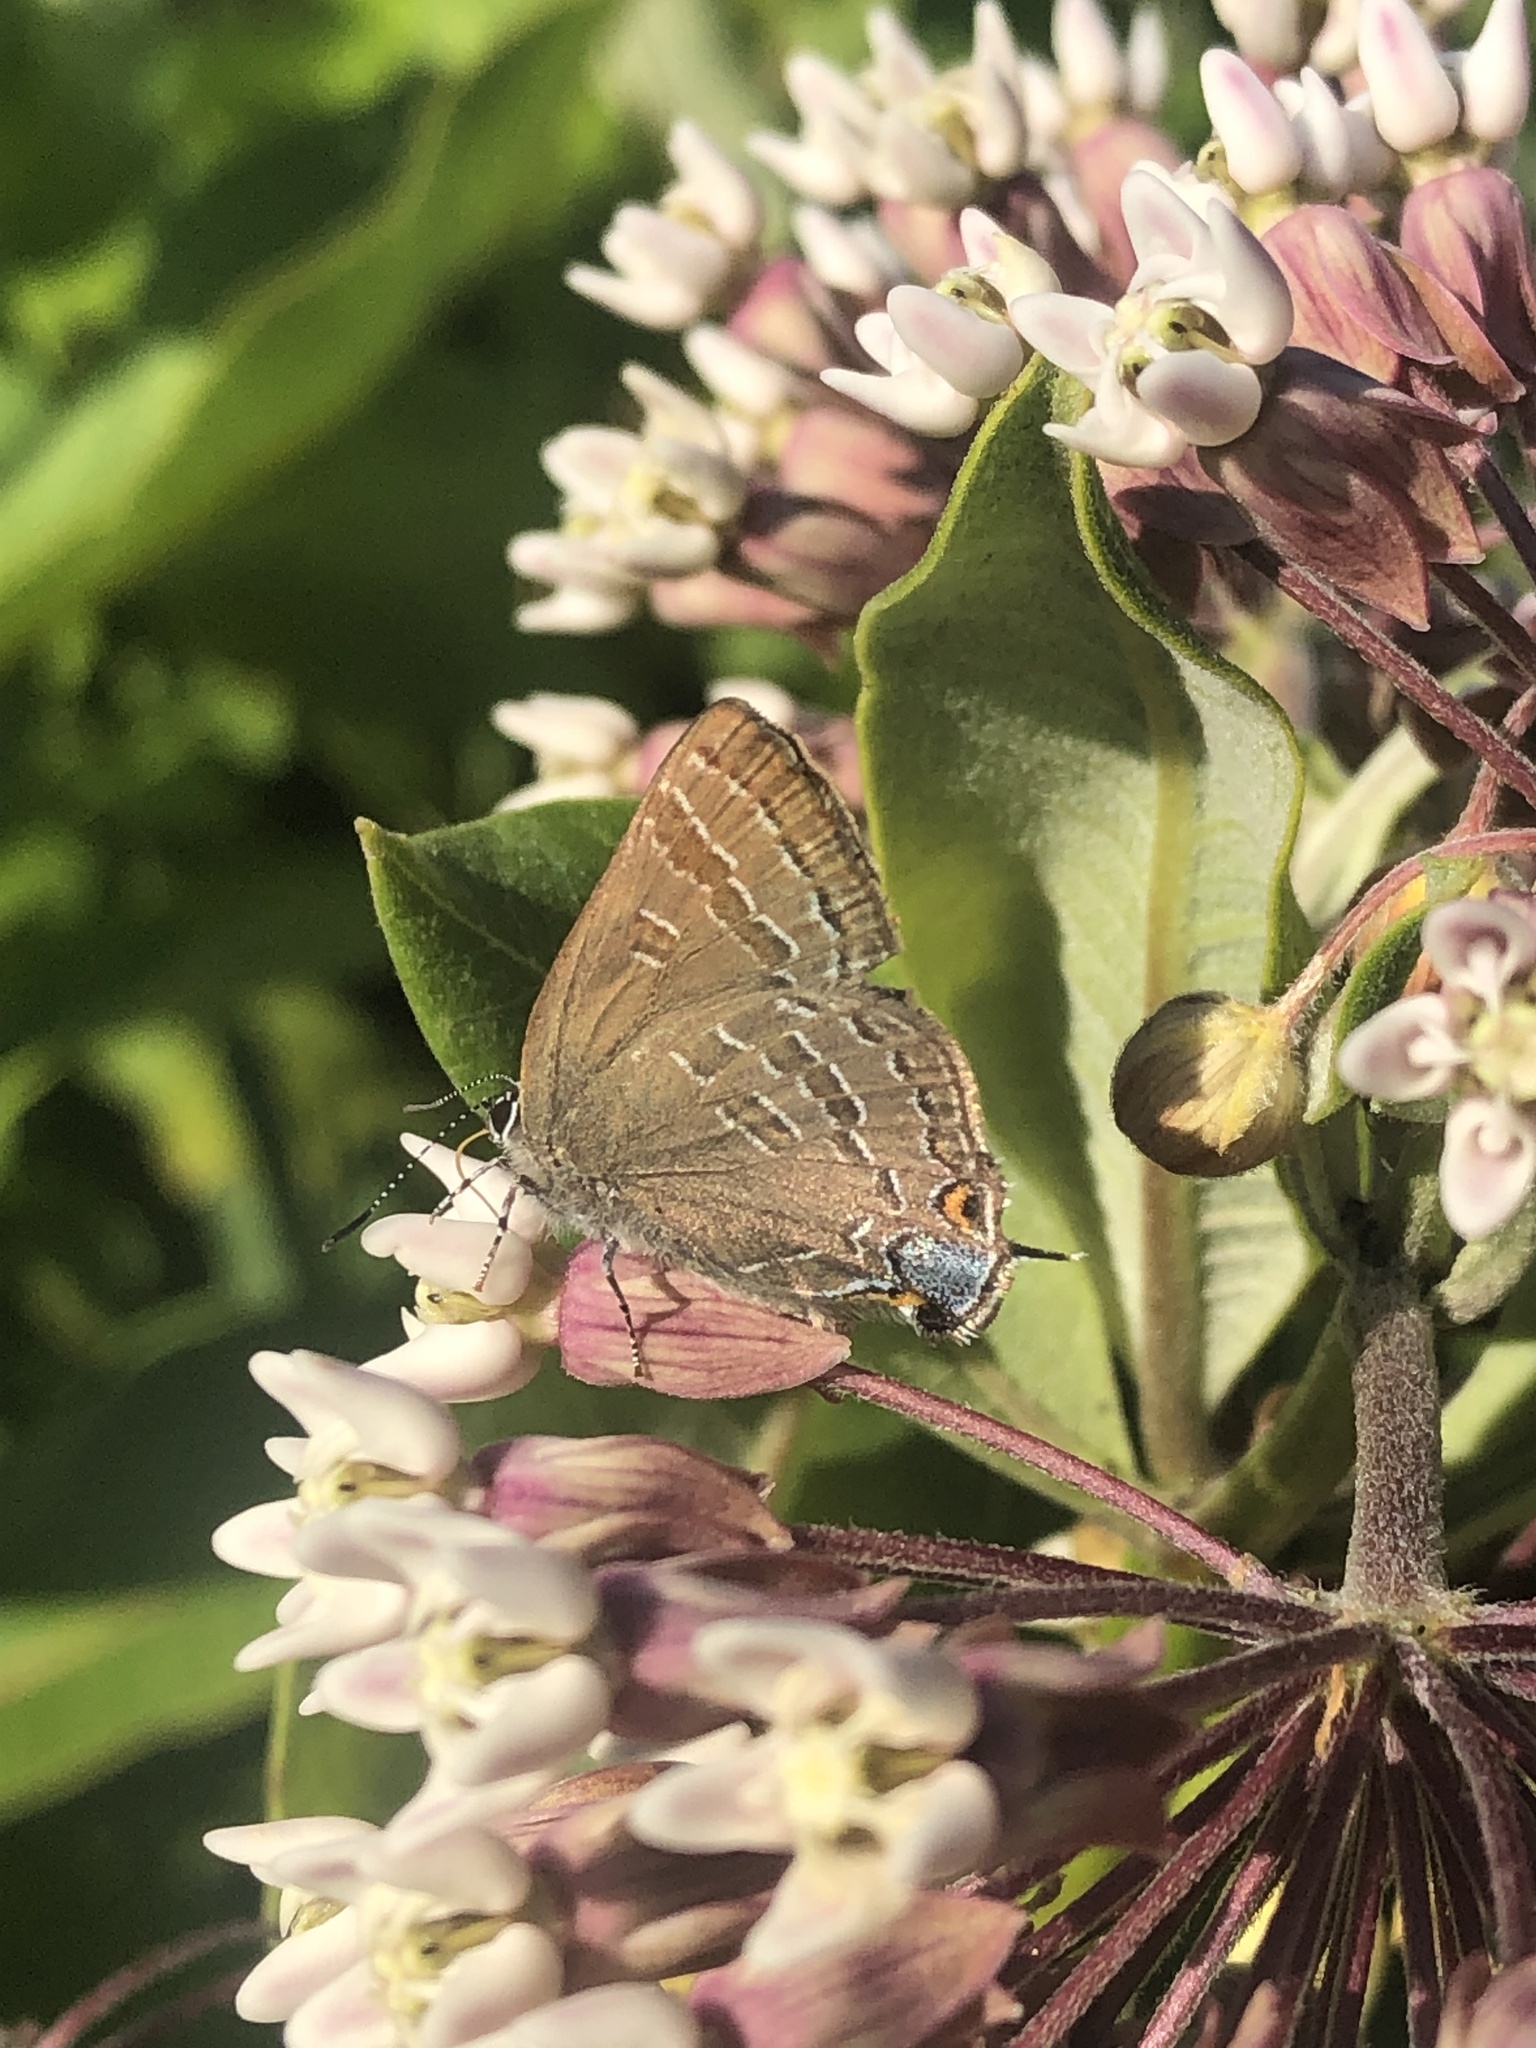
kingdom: Animalia
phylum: Arthropoda
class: Insecta
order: Lepidoptera
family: Lycaenidae
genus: Strymon
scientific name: Strymon caryaevorus
